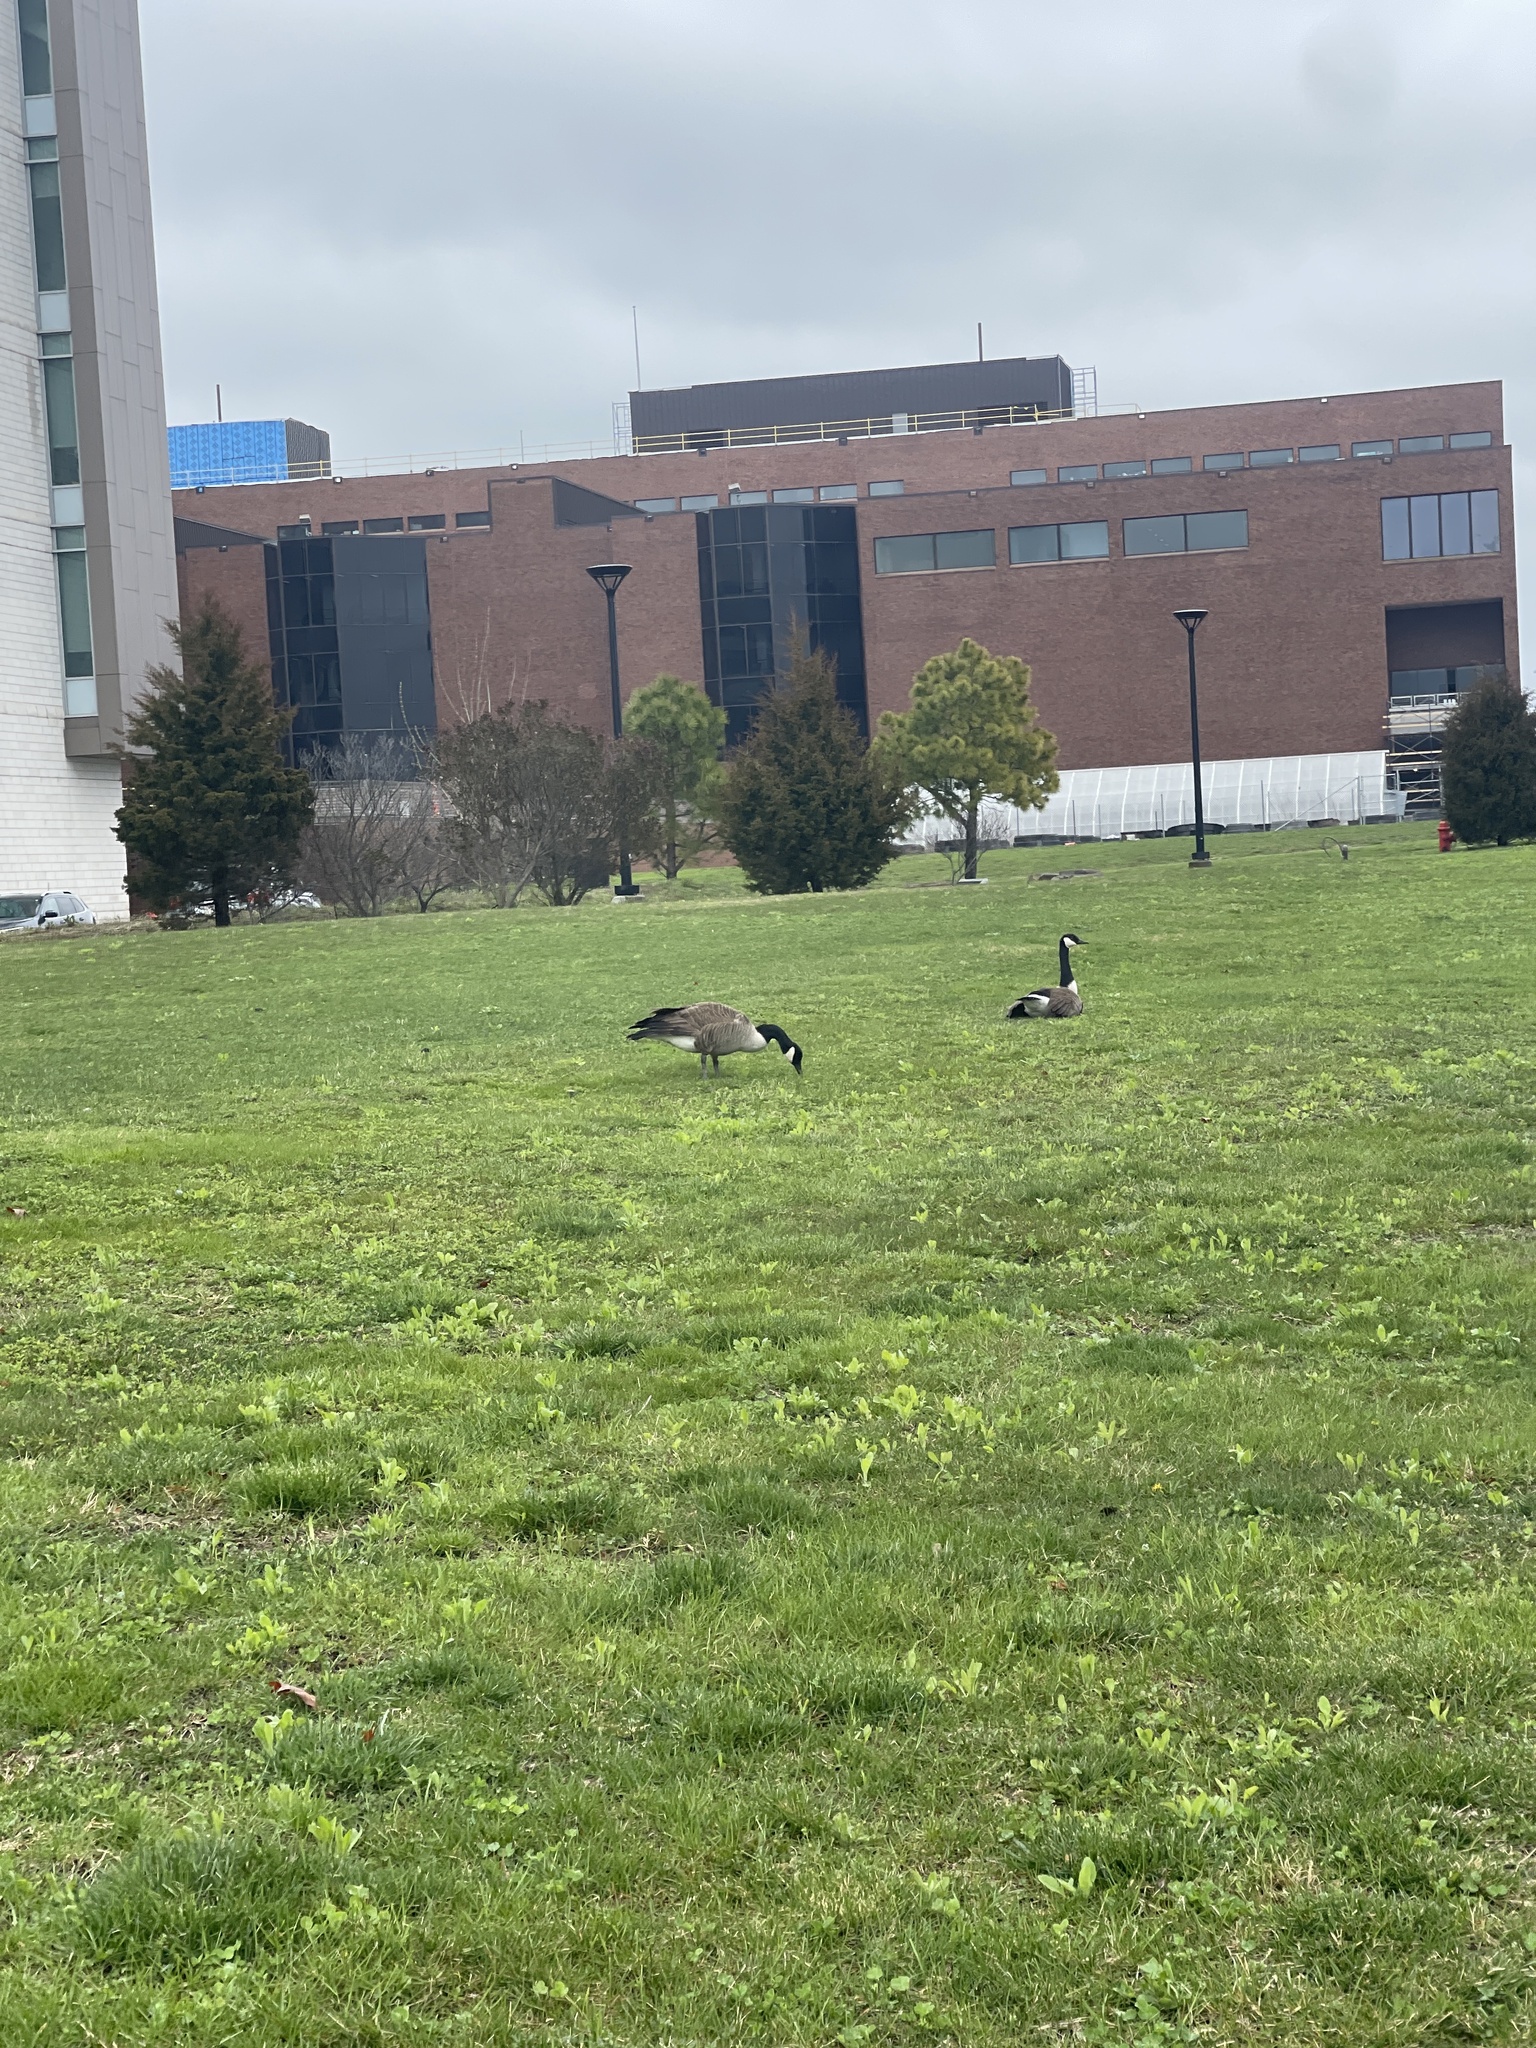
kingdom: Animalia
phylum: Chordata
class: Aves
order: Anseriformes
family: Anatidae
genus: Branta
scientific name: Branta canadensis
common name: Canada goose
